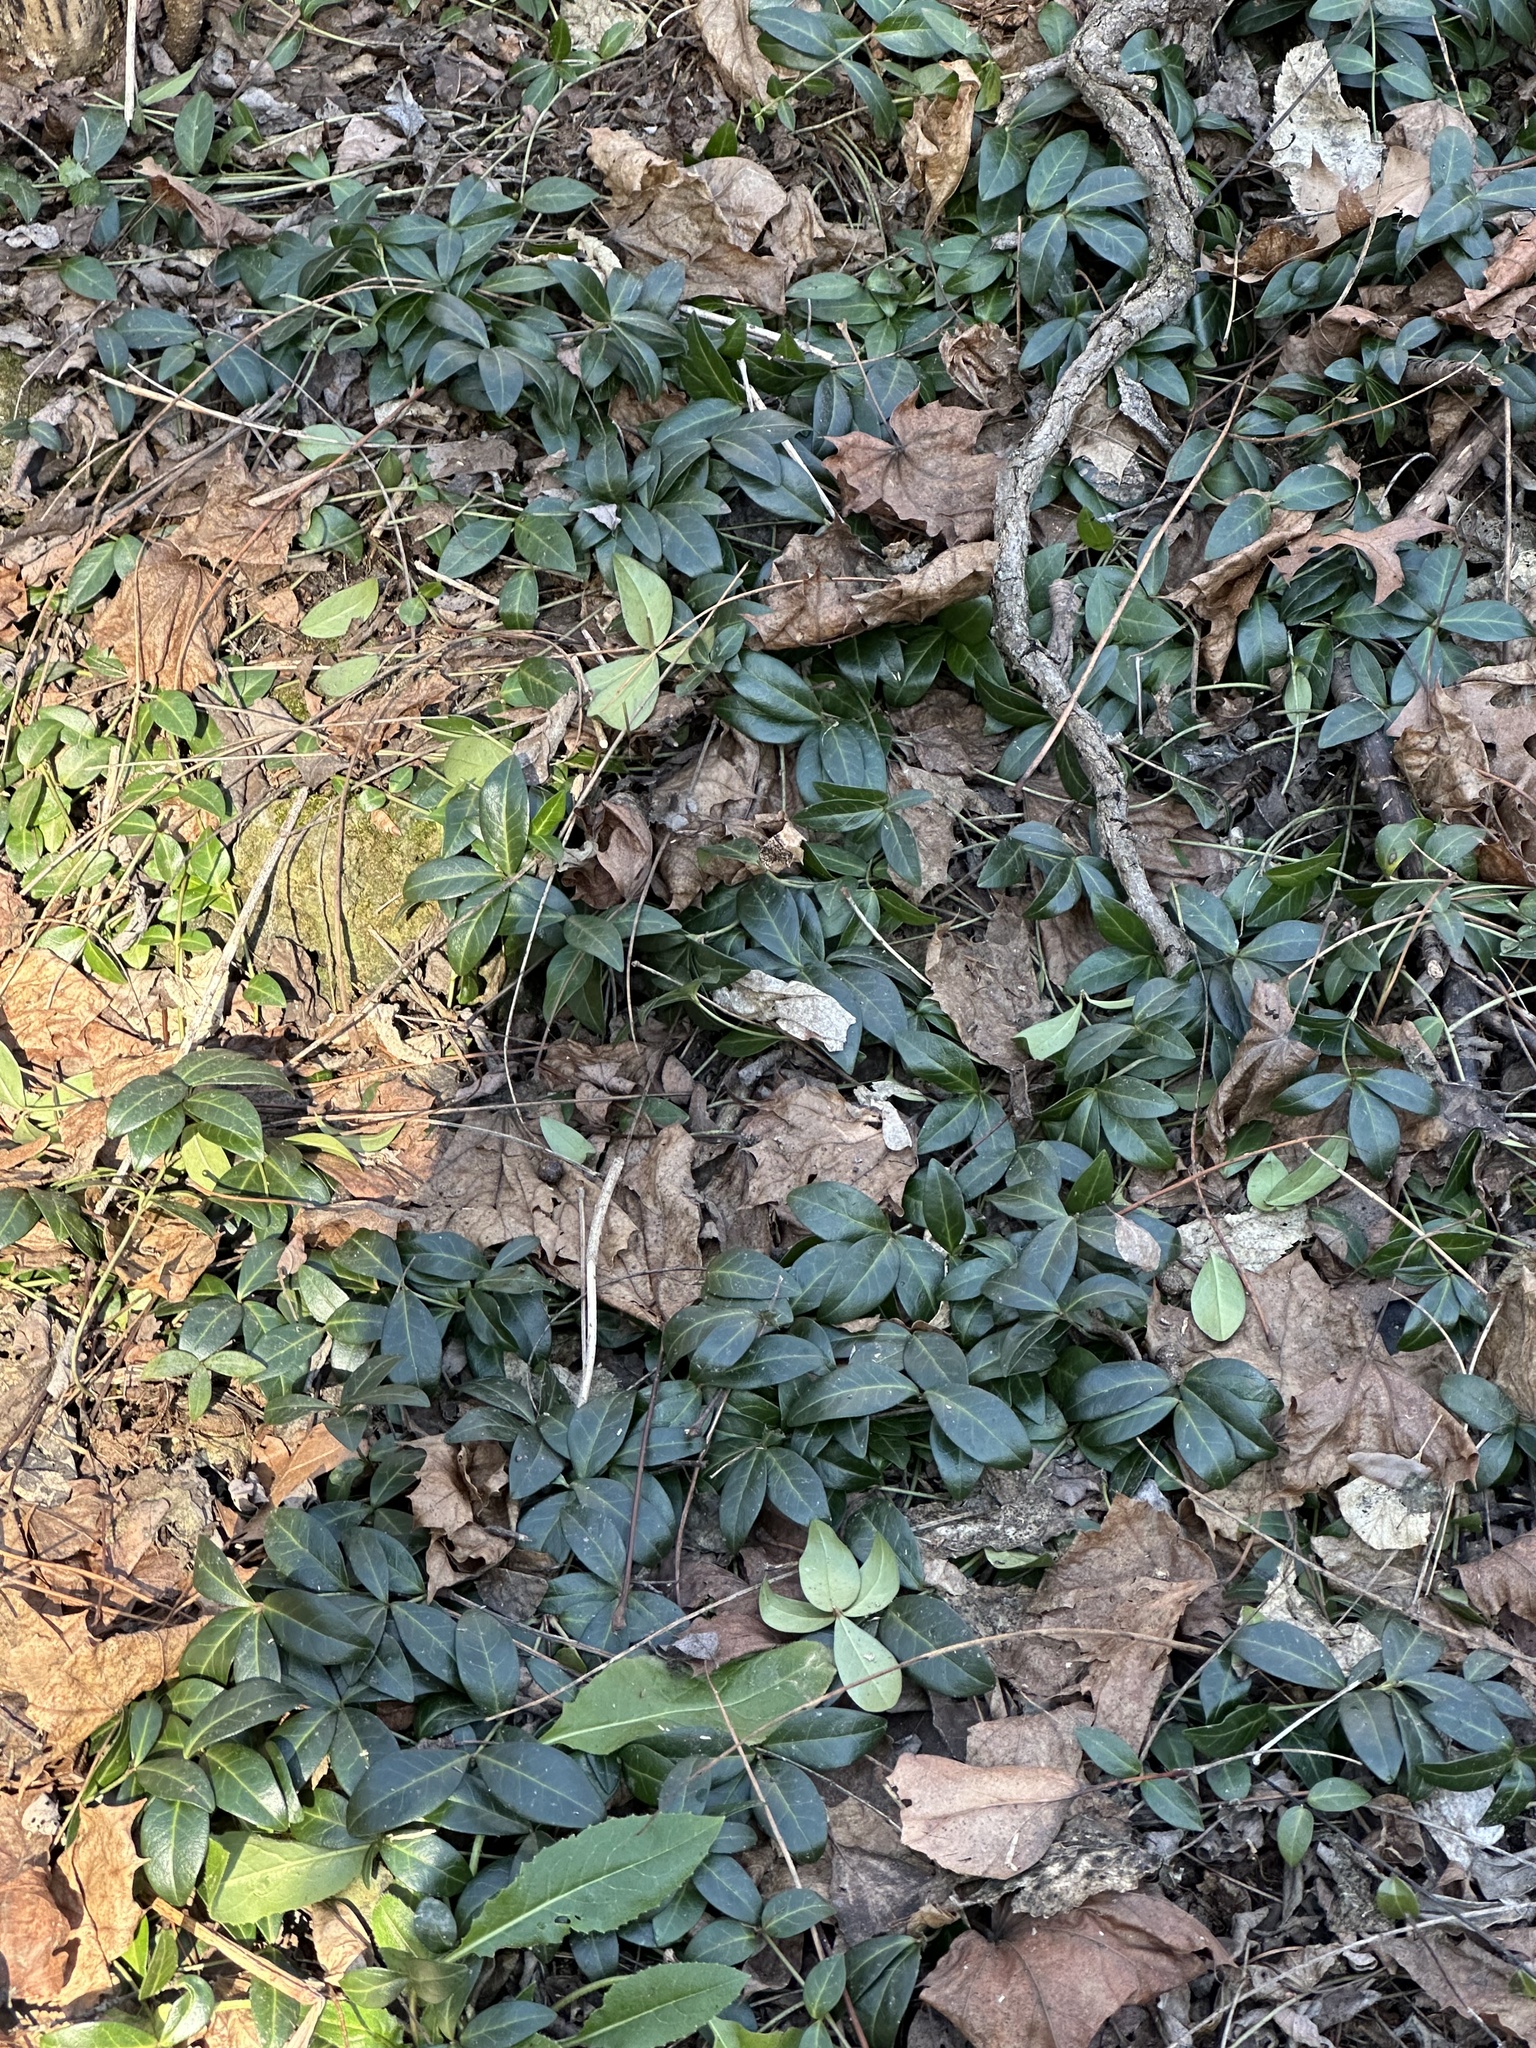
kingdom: Plantae
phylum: Tracheophyta
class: Magnoliopsida
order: Gentianales
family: Apocynaceae
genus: Vinca
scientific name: Vinca minor
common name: Lesser periwinkle
